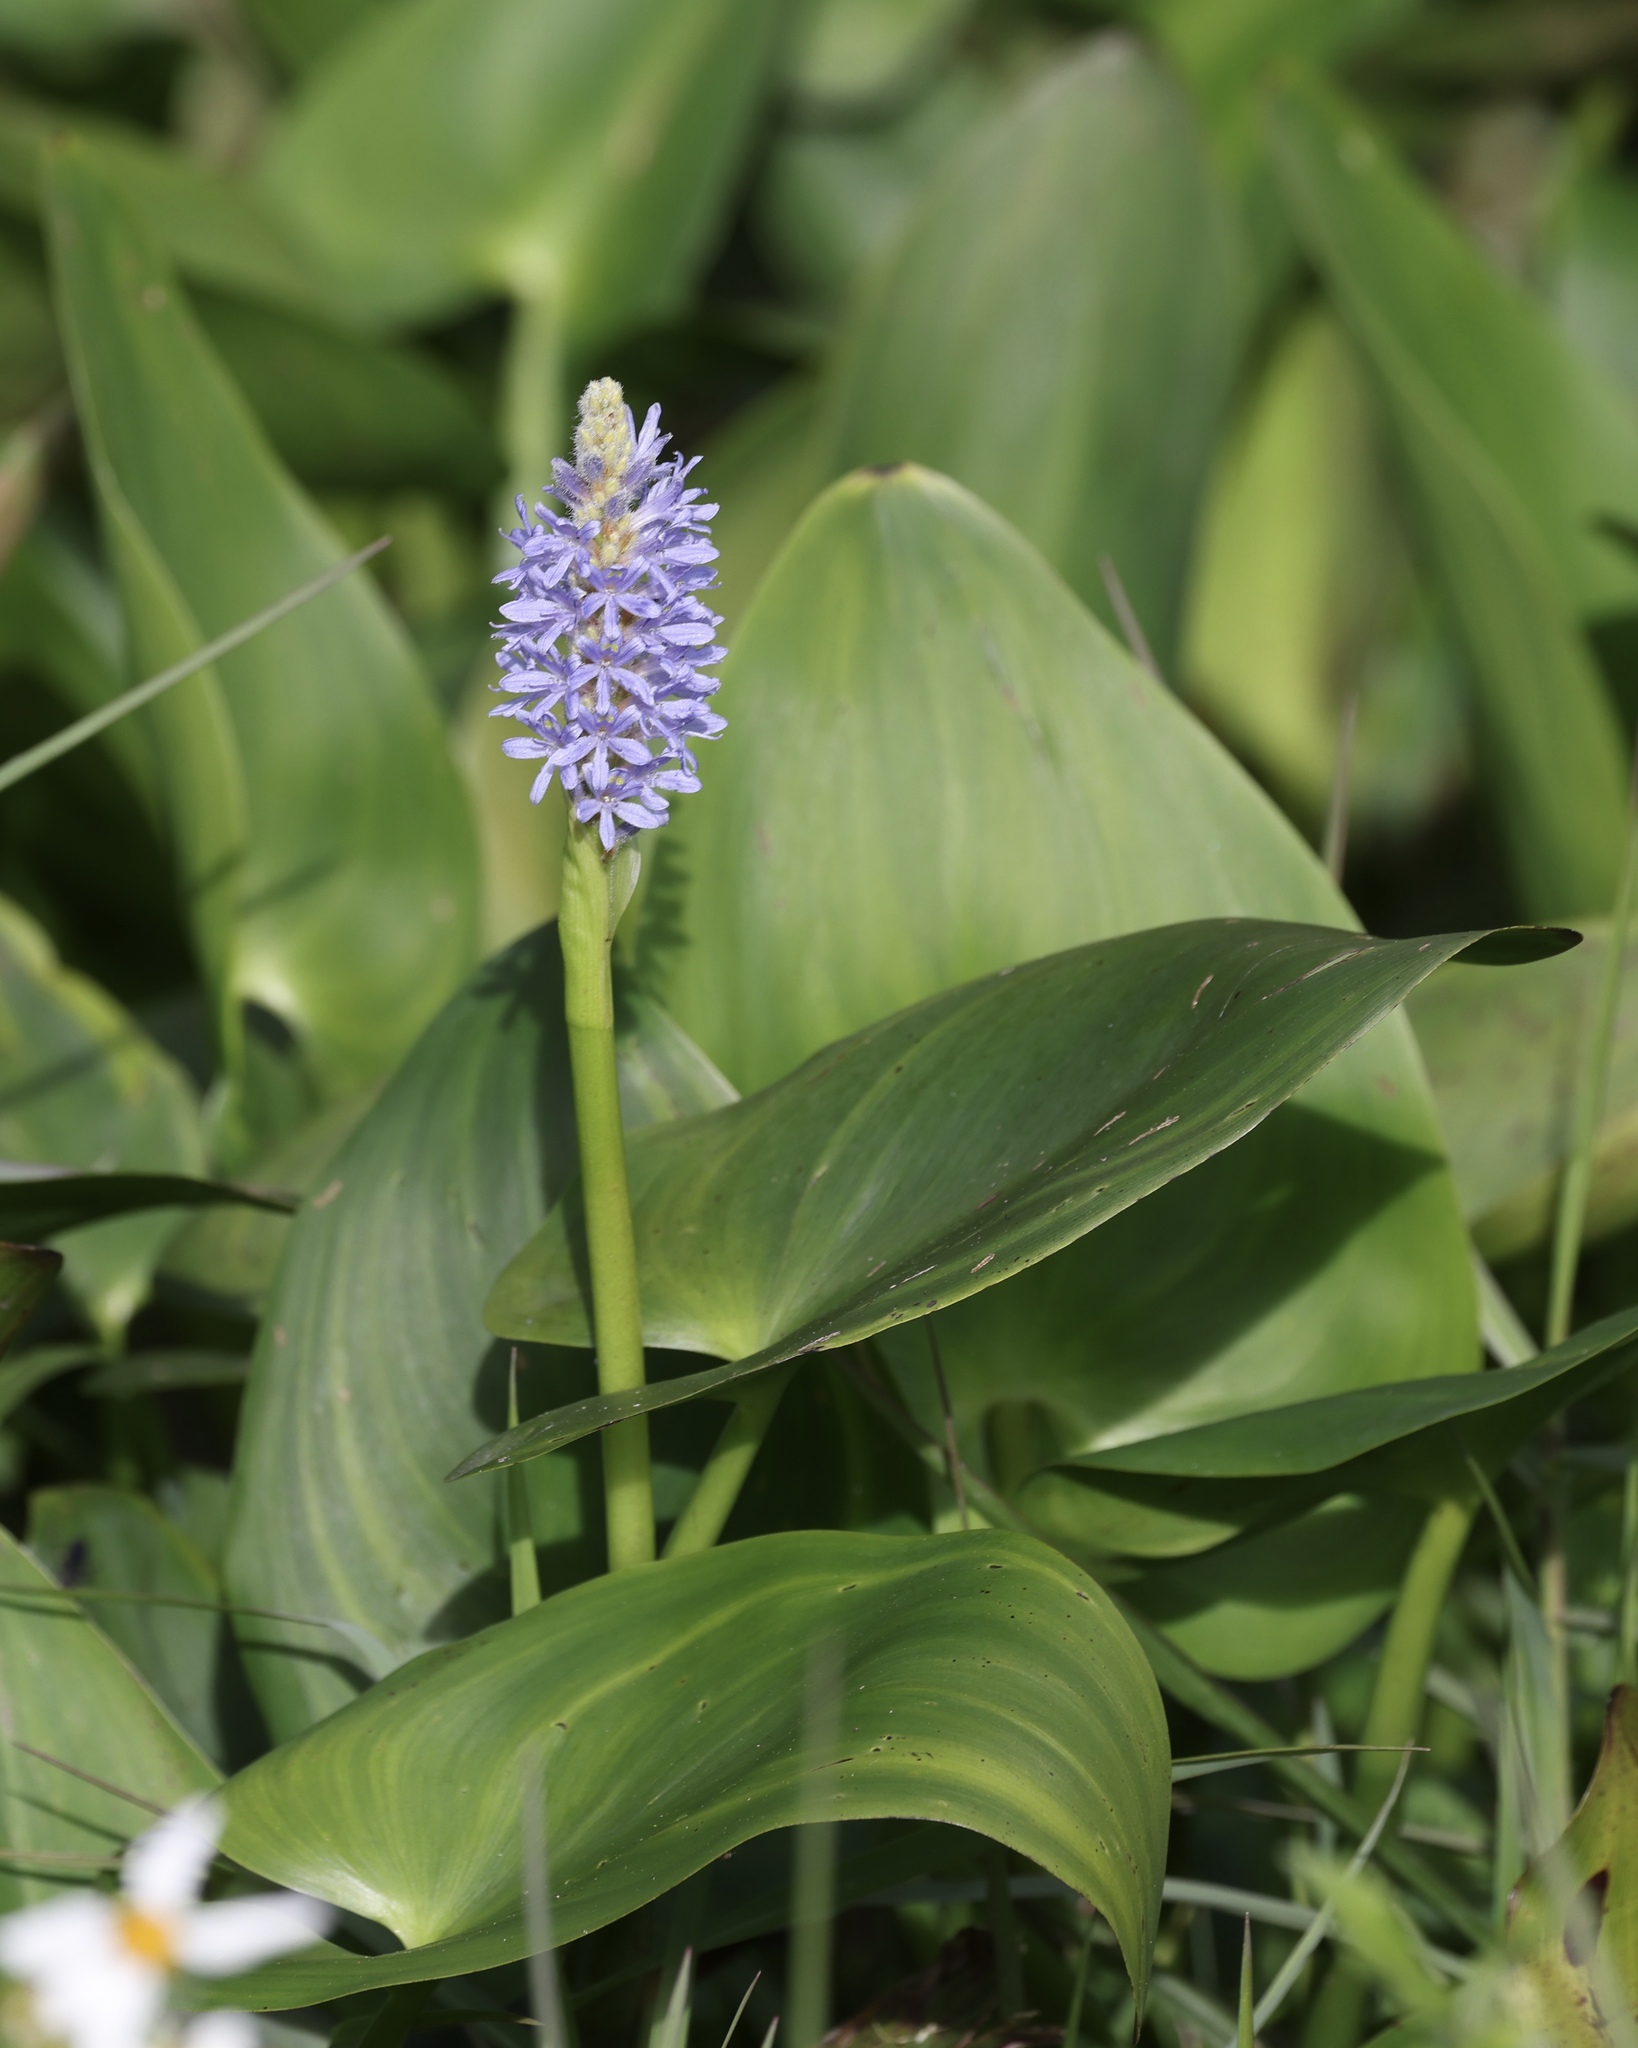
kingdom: Plantae
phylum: Tracheophyta
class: Liliopsida
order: Commelinales
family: Pontederiaceae
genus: Pontederia
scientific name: Pontederia cordata
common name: Pickerelweed
